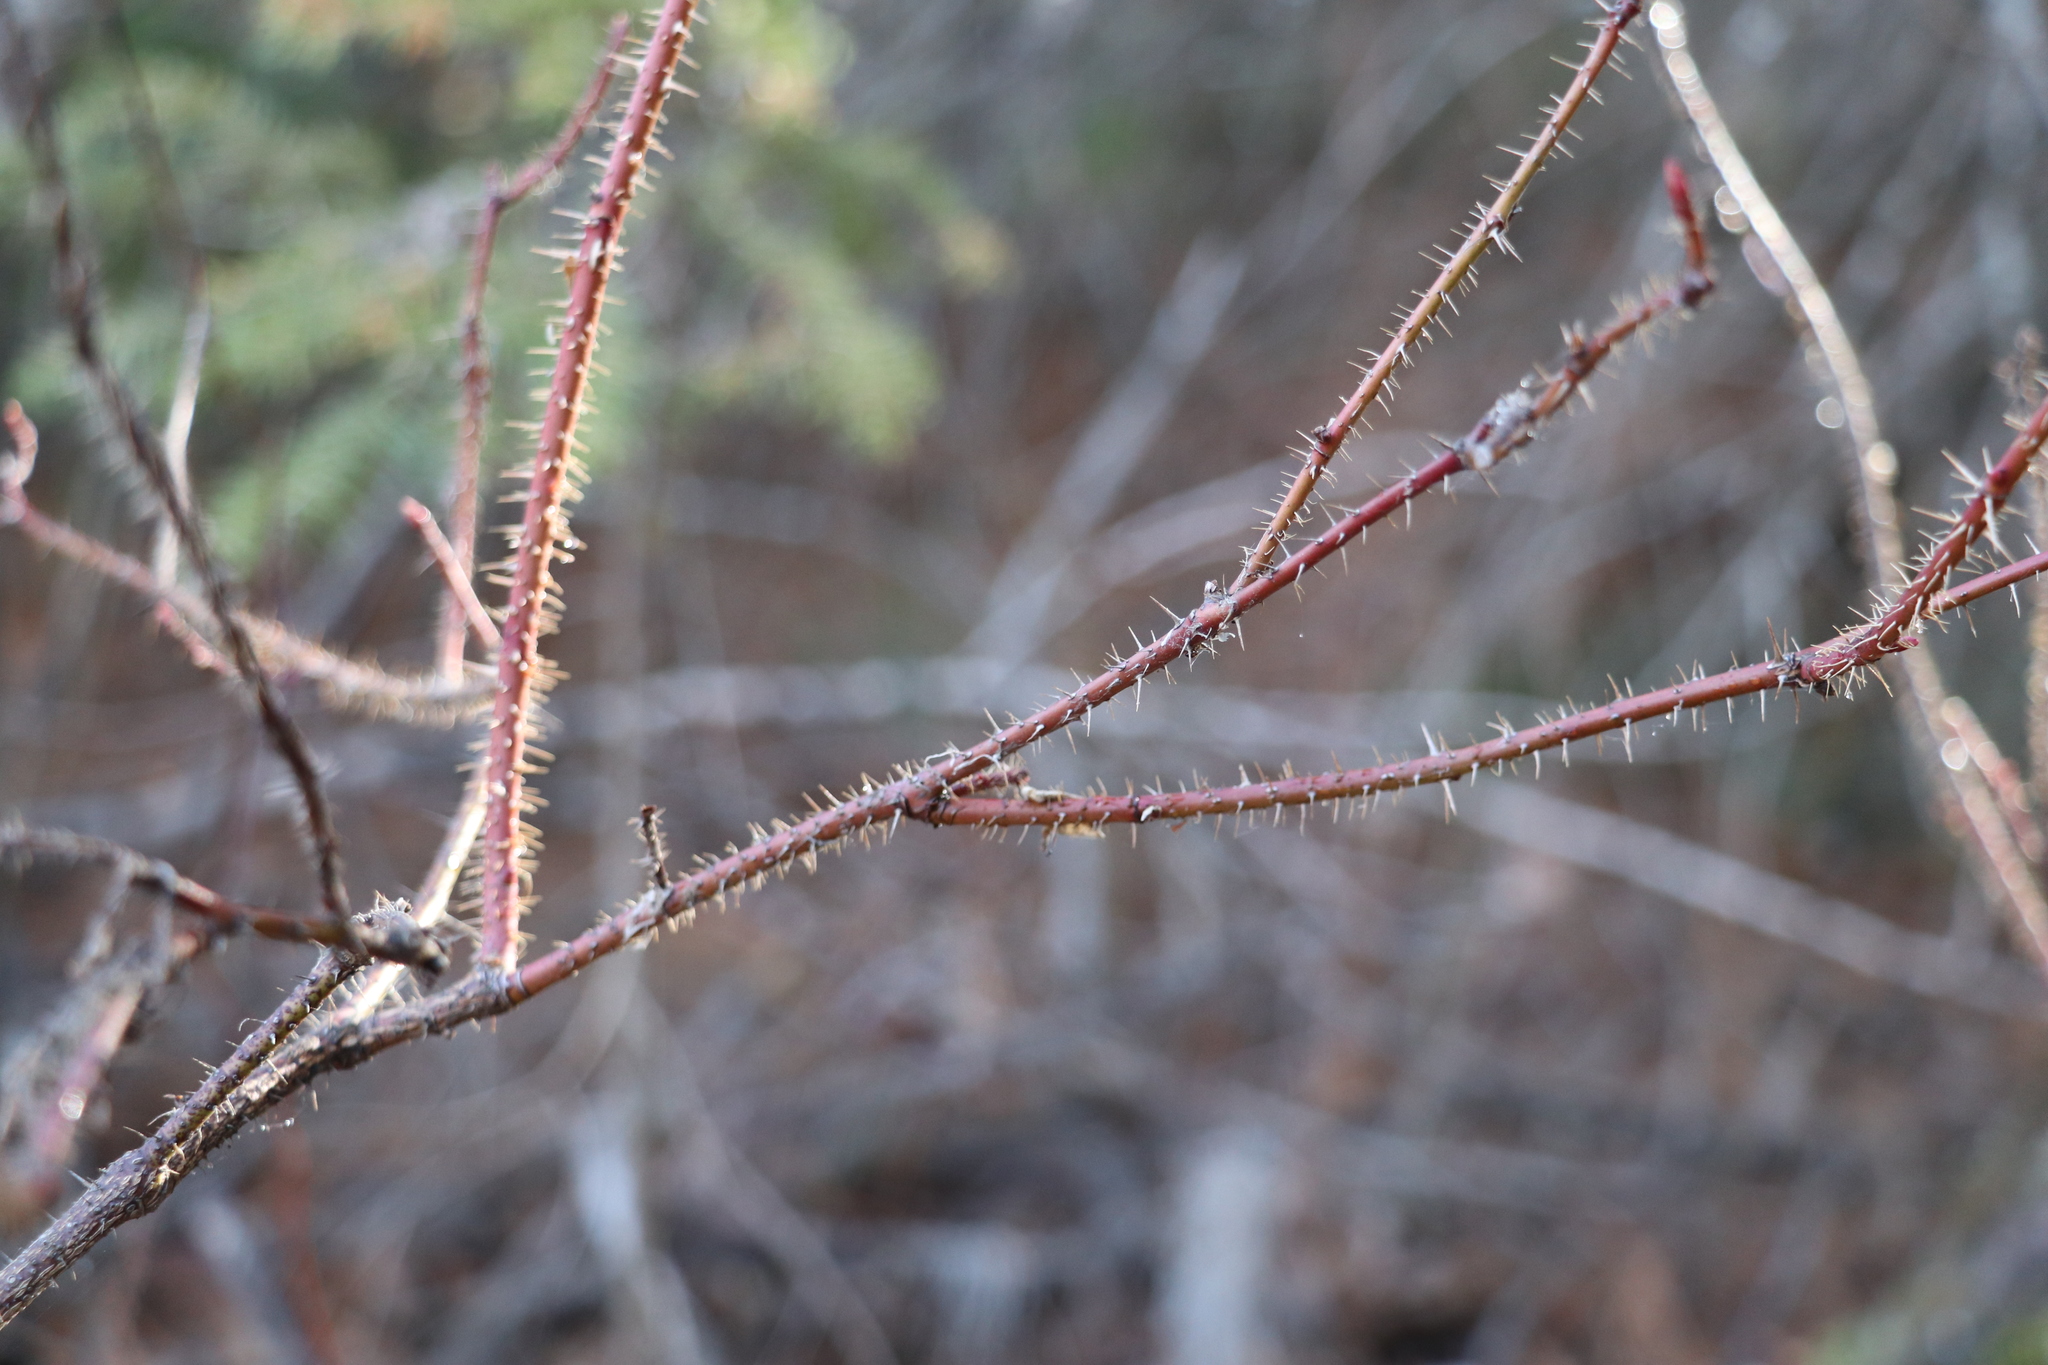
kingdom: Plantae
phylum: Tracheophyta
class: Magnoliopsida
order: Rosales
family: Rosaceae
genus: Rosa
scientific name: Rosa acicularis
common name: Prickly rose
